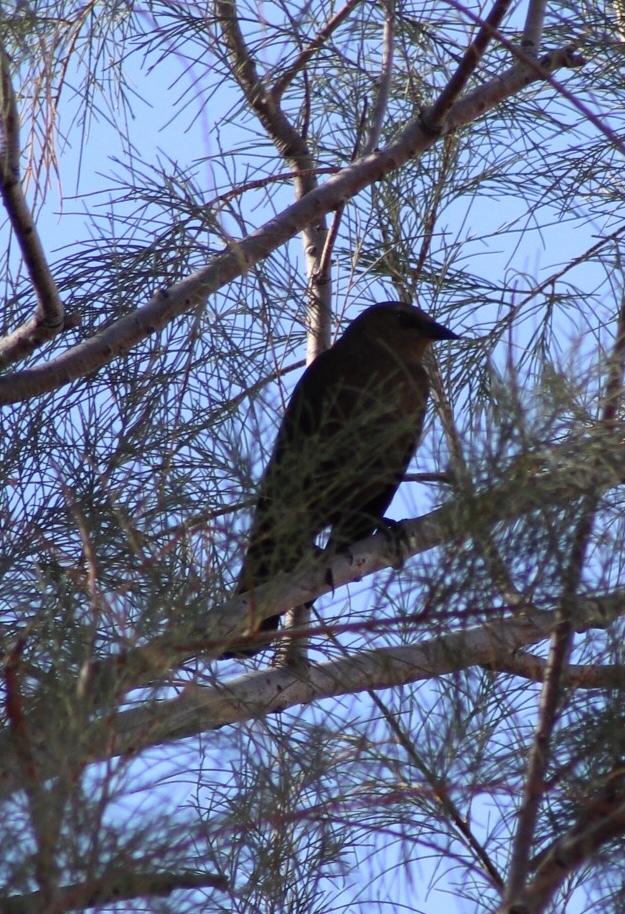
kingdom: Animalia
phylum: Chordata
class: Aves
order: Passeriformes
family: Icteridae
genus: Euphagus
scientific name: Euphagus cyanocephalus
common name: Brewer's blackbird
